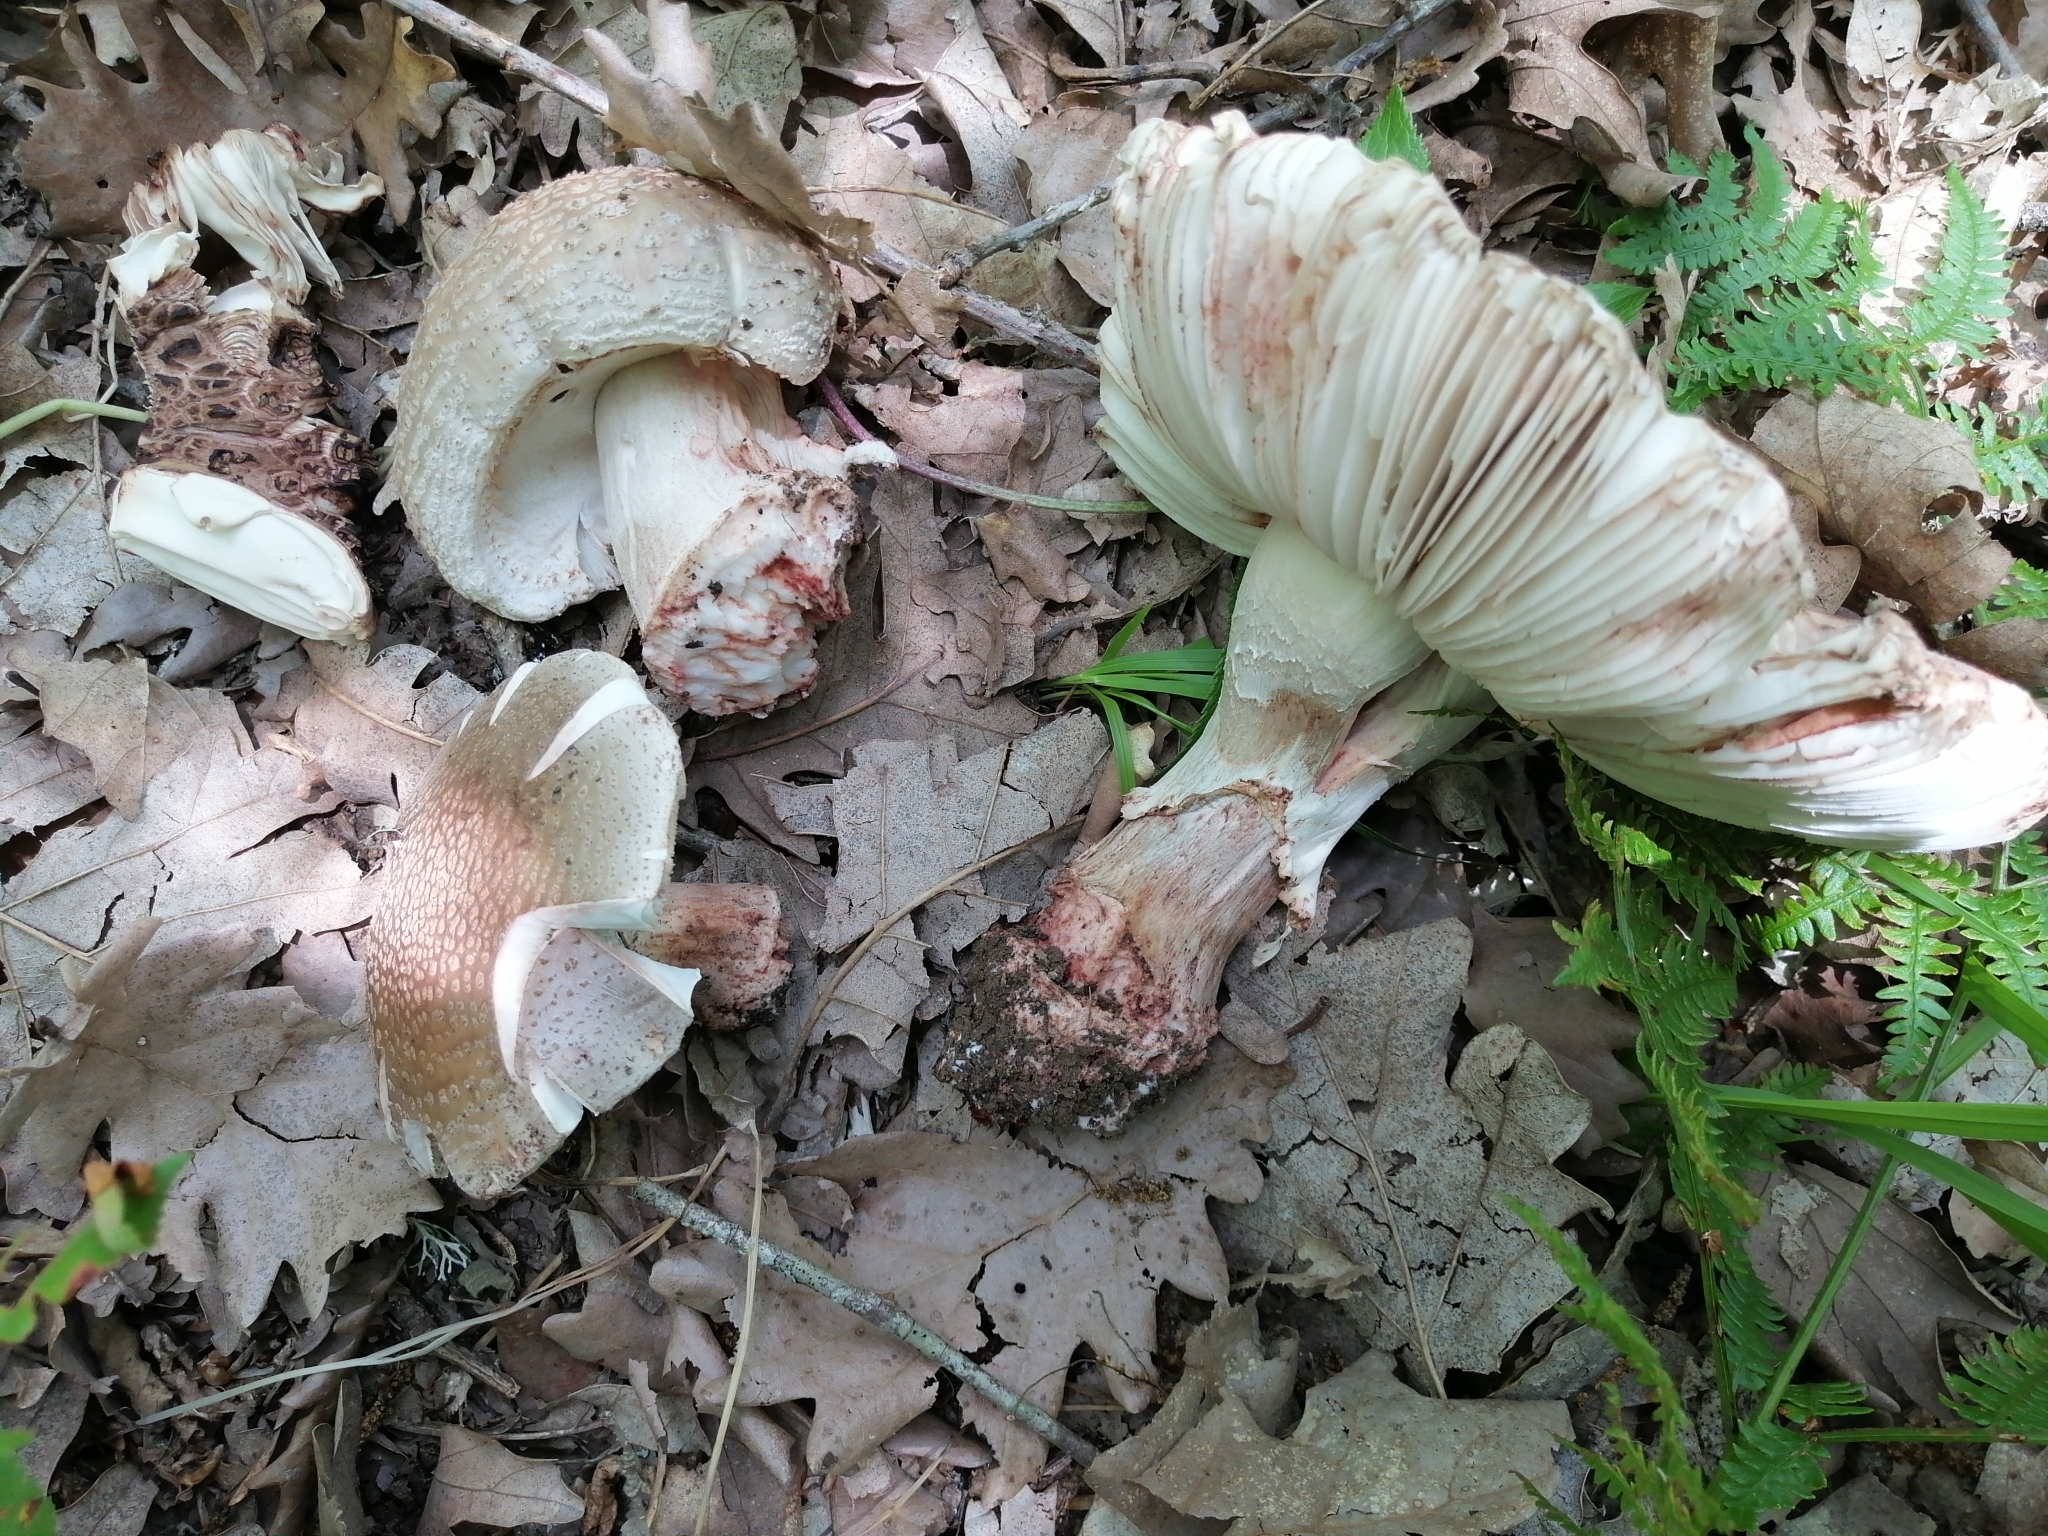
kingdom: Fungi
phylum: Basidiomycota
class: Agaricomycetes
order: Agaricales
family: Amanitaceae
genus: Amanita
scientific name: Amanita rubescens
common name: Blusher
